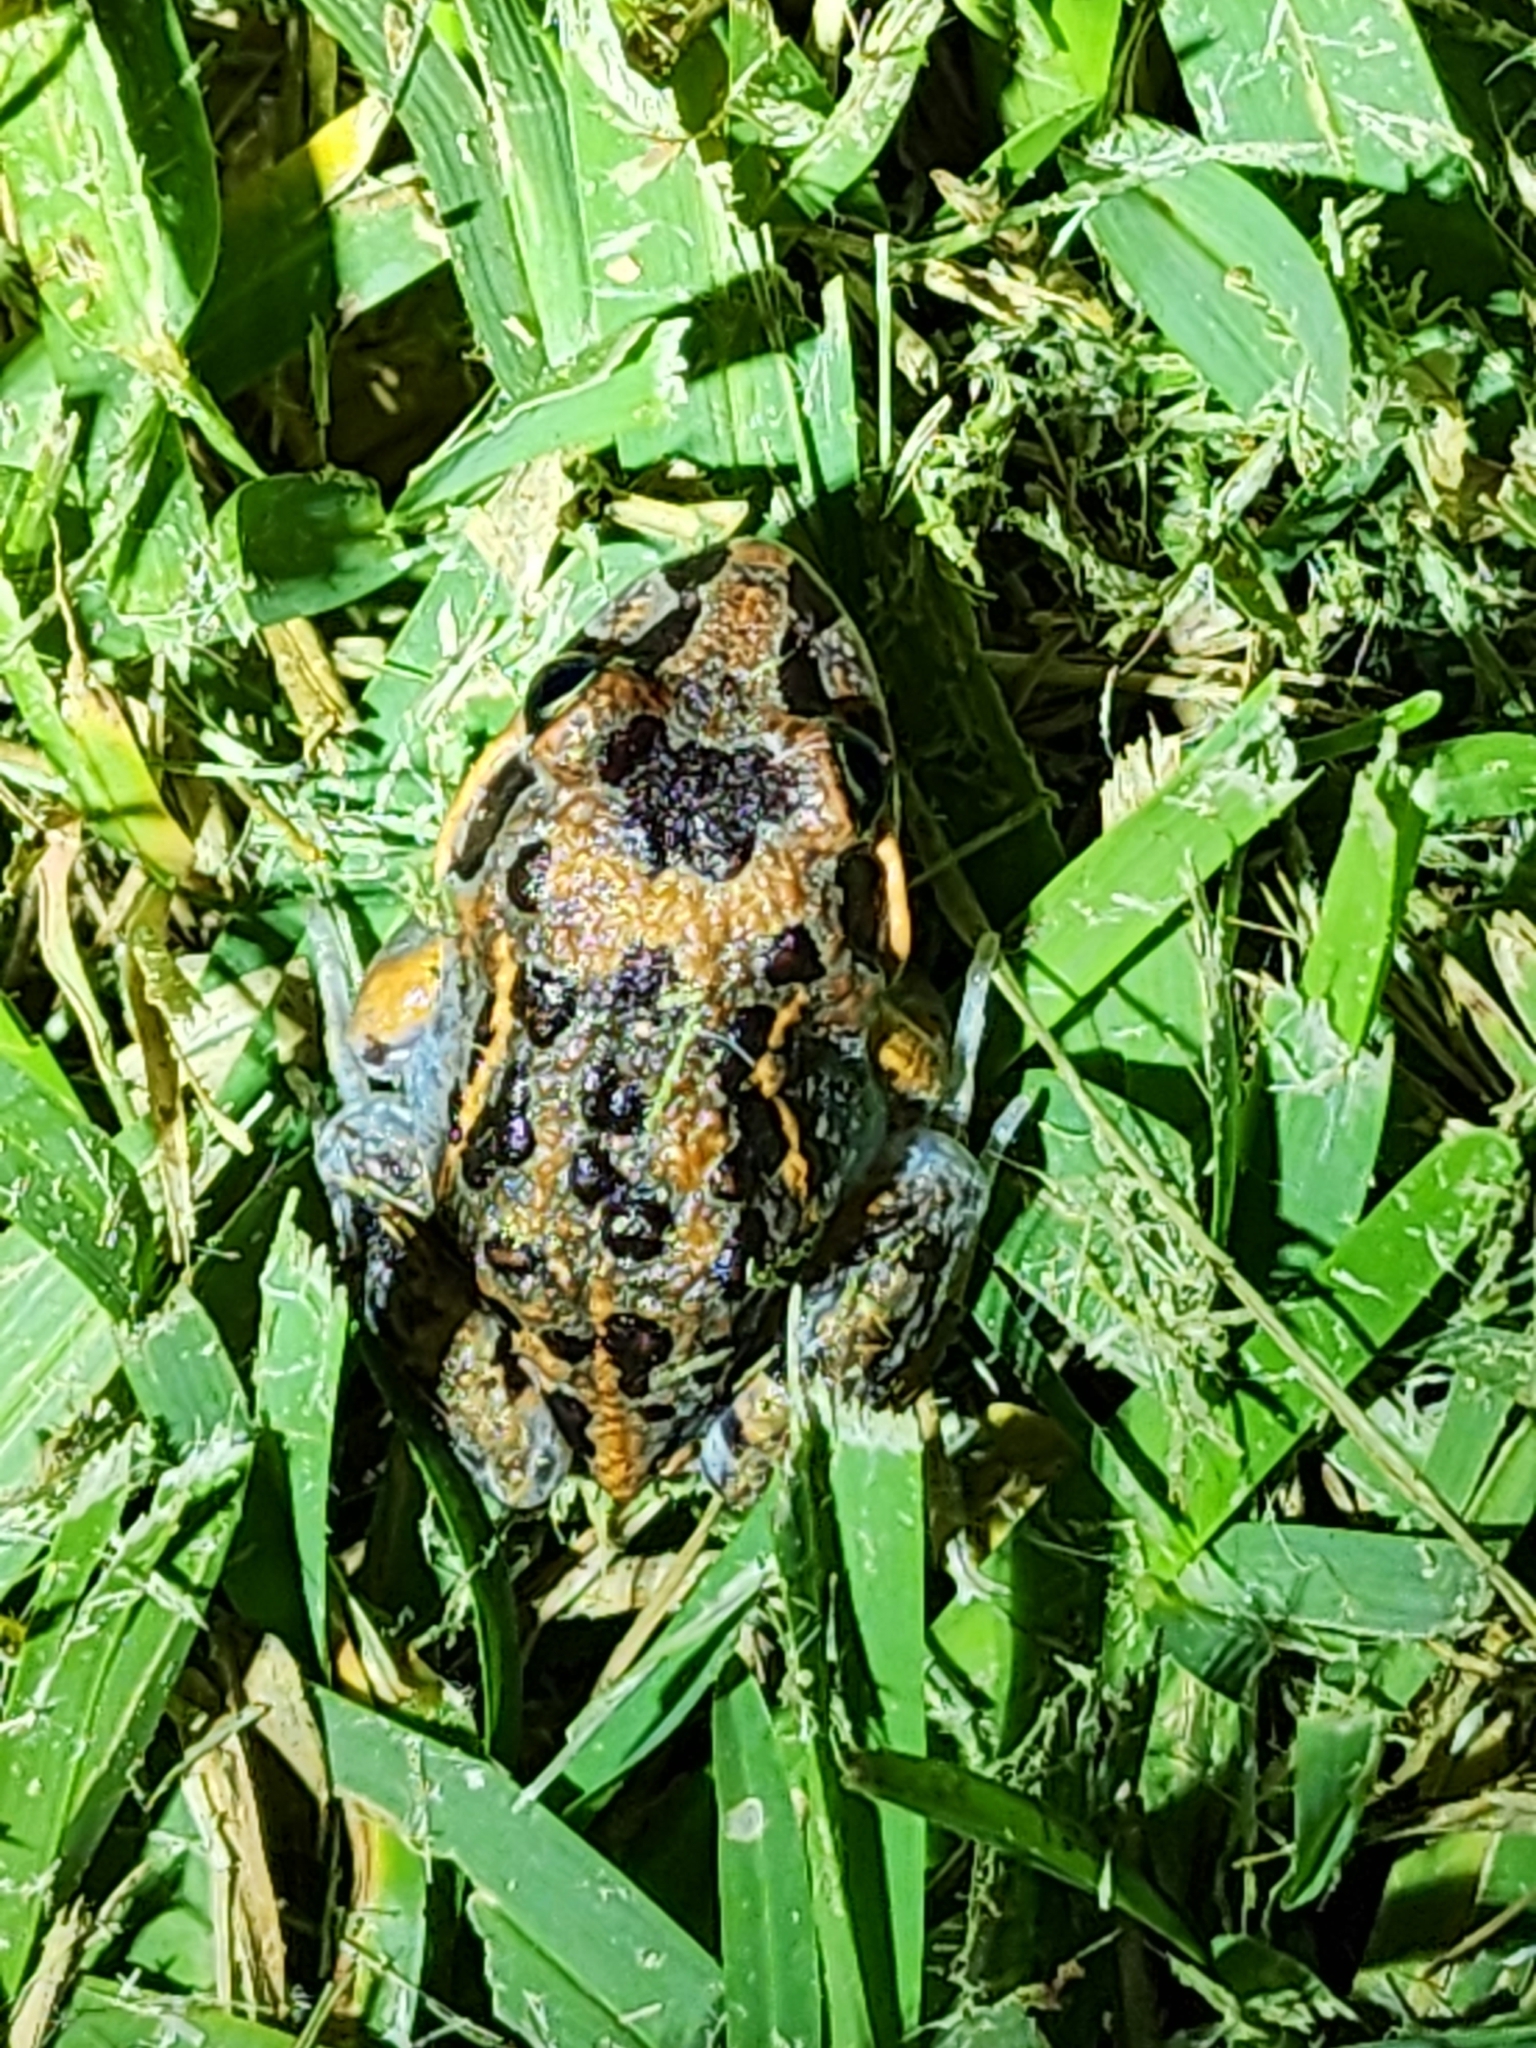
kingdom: Animalia
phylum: Chordata
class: Amphibia
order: Anura
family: Limnodynastidae
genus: Limnodynastes
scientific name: Limnodynastes salmini
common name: Salmon-striped frog
